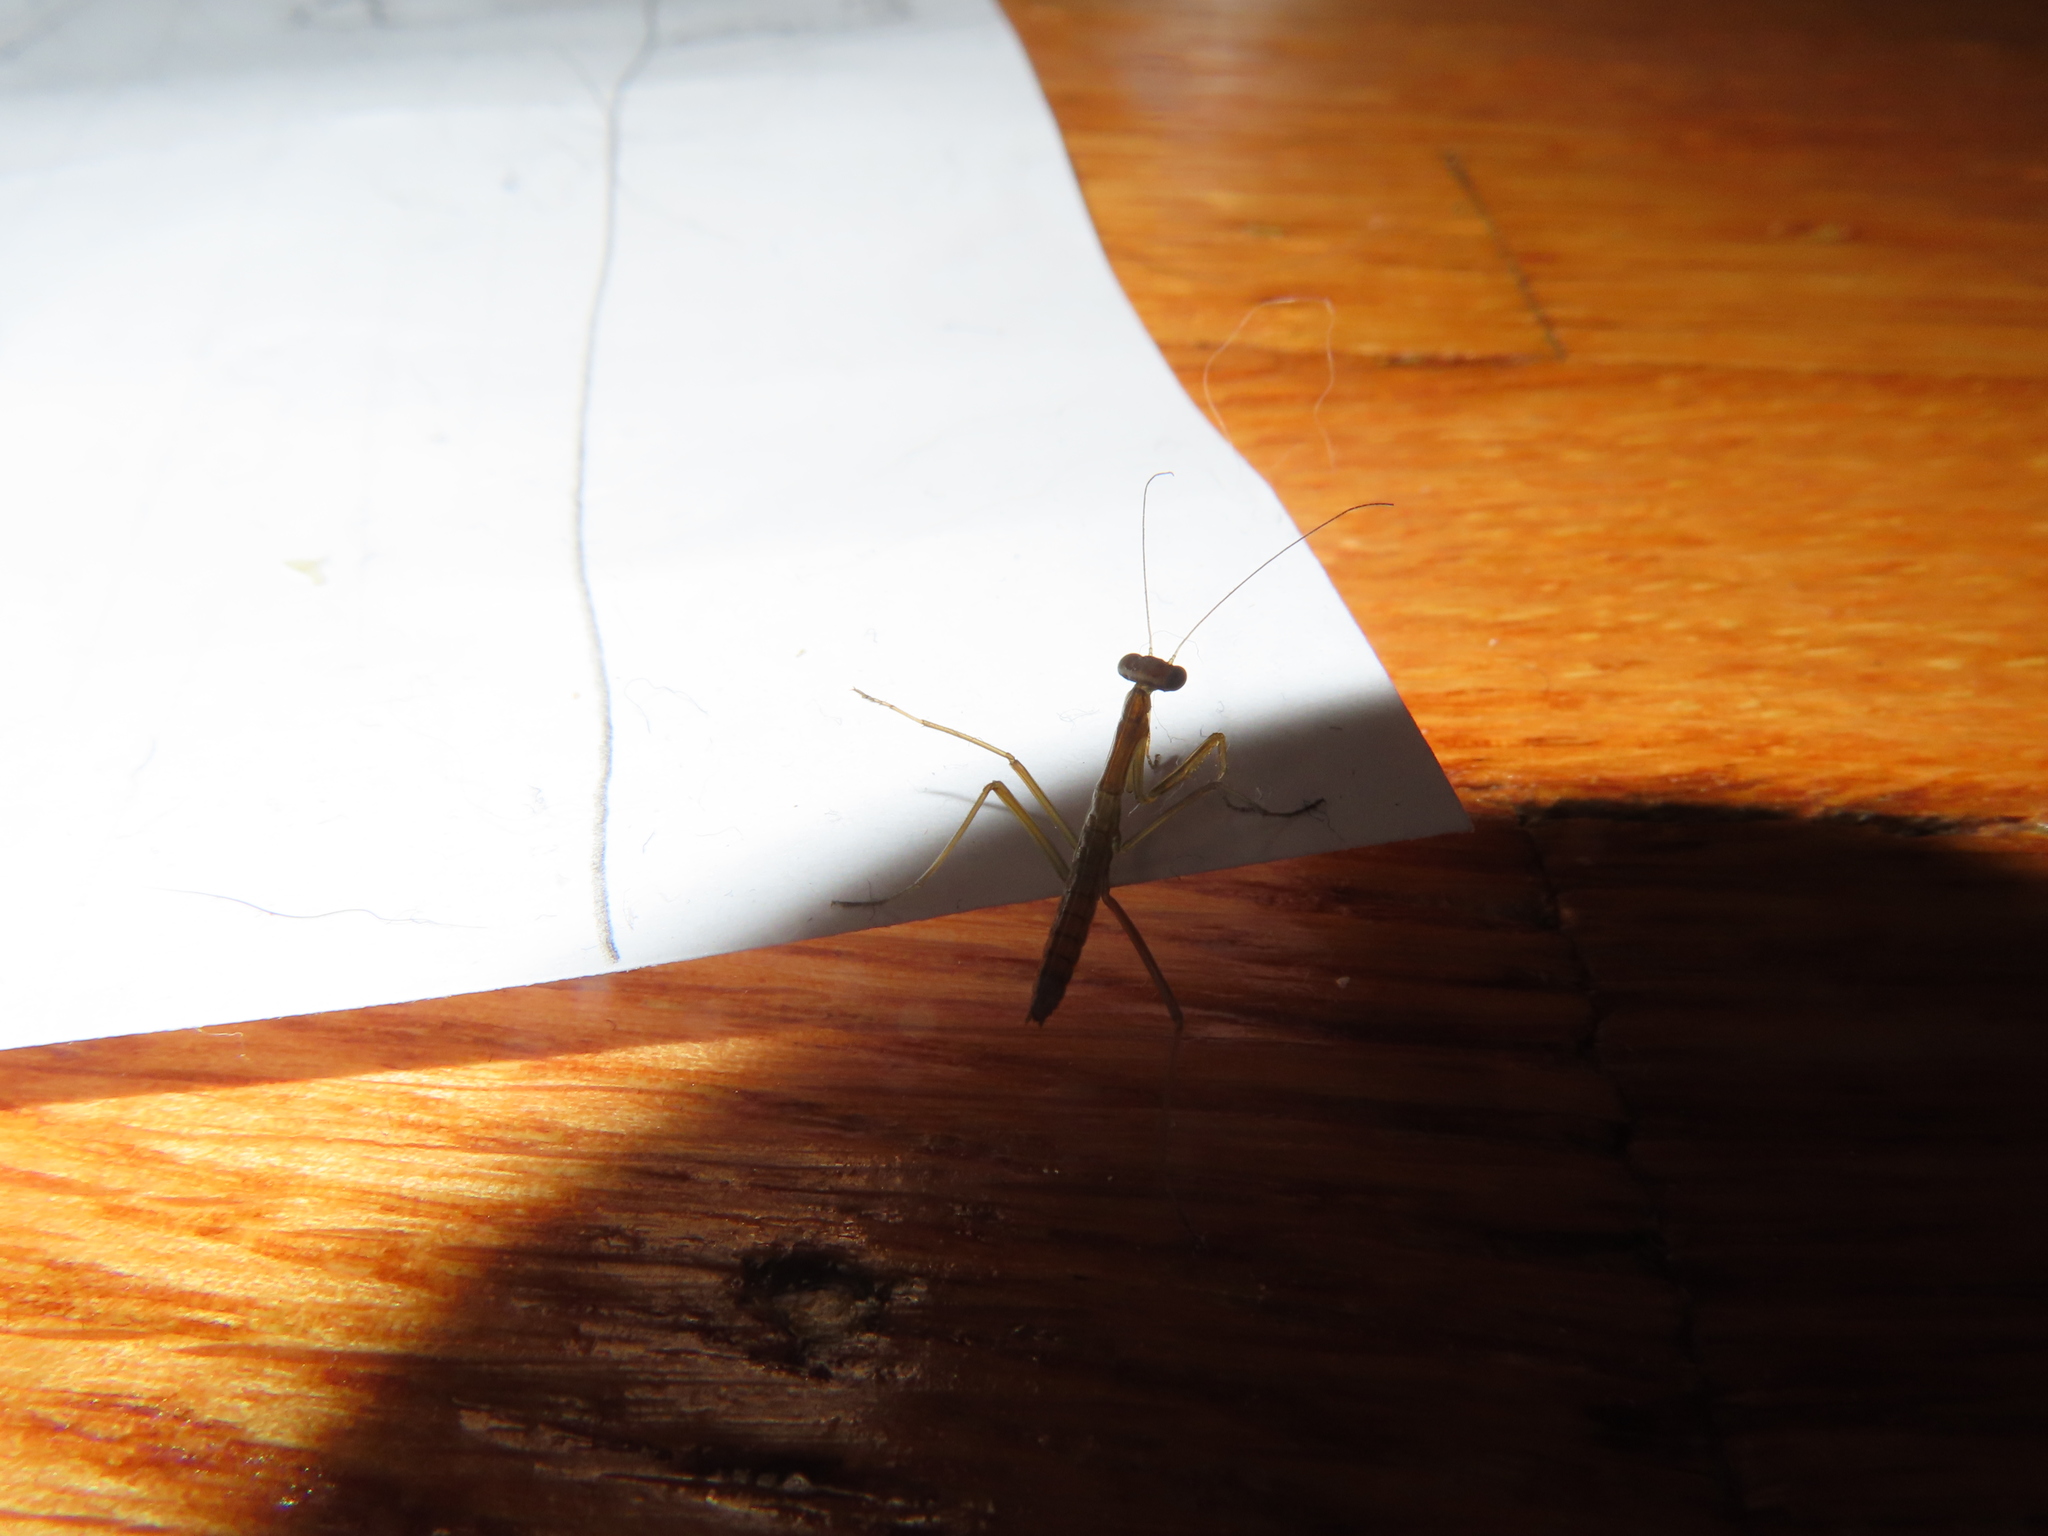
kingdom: Animalia
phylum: Arthropoda
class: Insecta
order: Mantodea
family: Mantidae
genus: Tenodera
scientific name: Tenodera sinensis
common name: Chinese mantis
